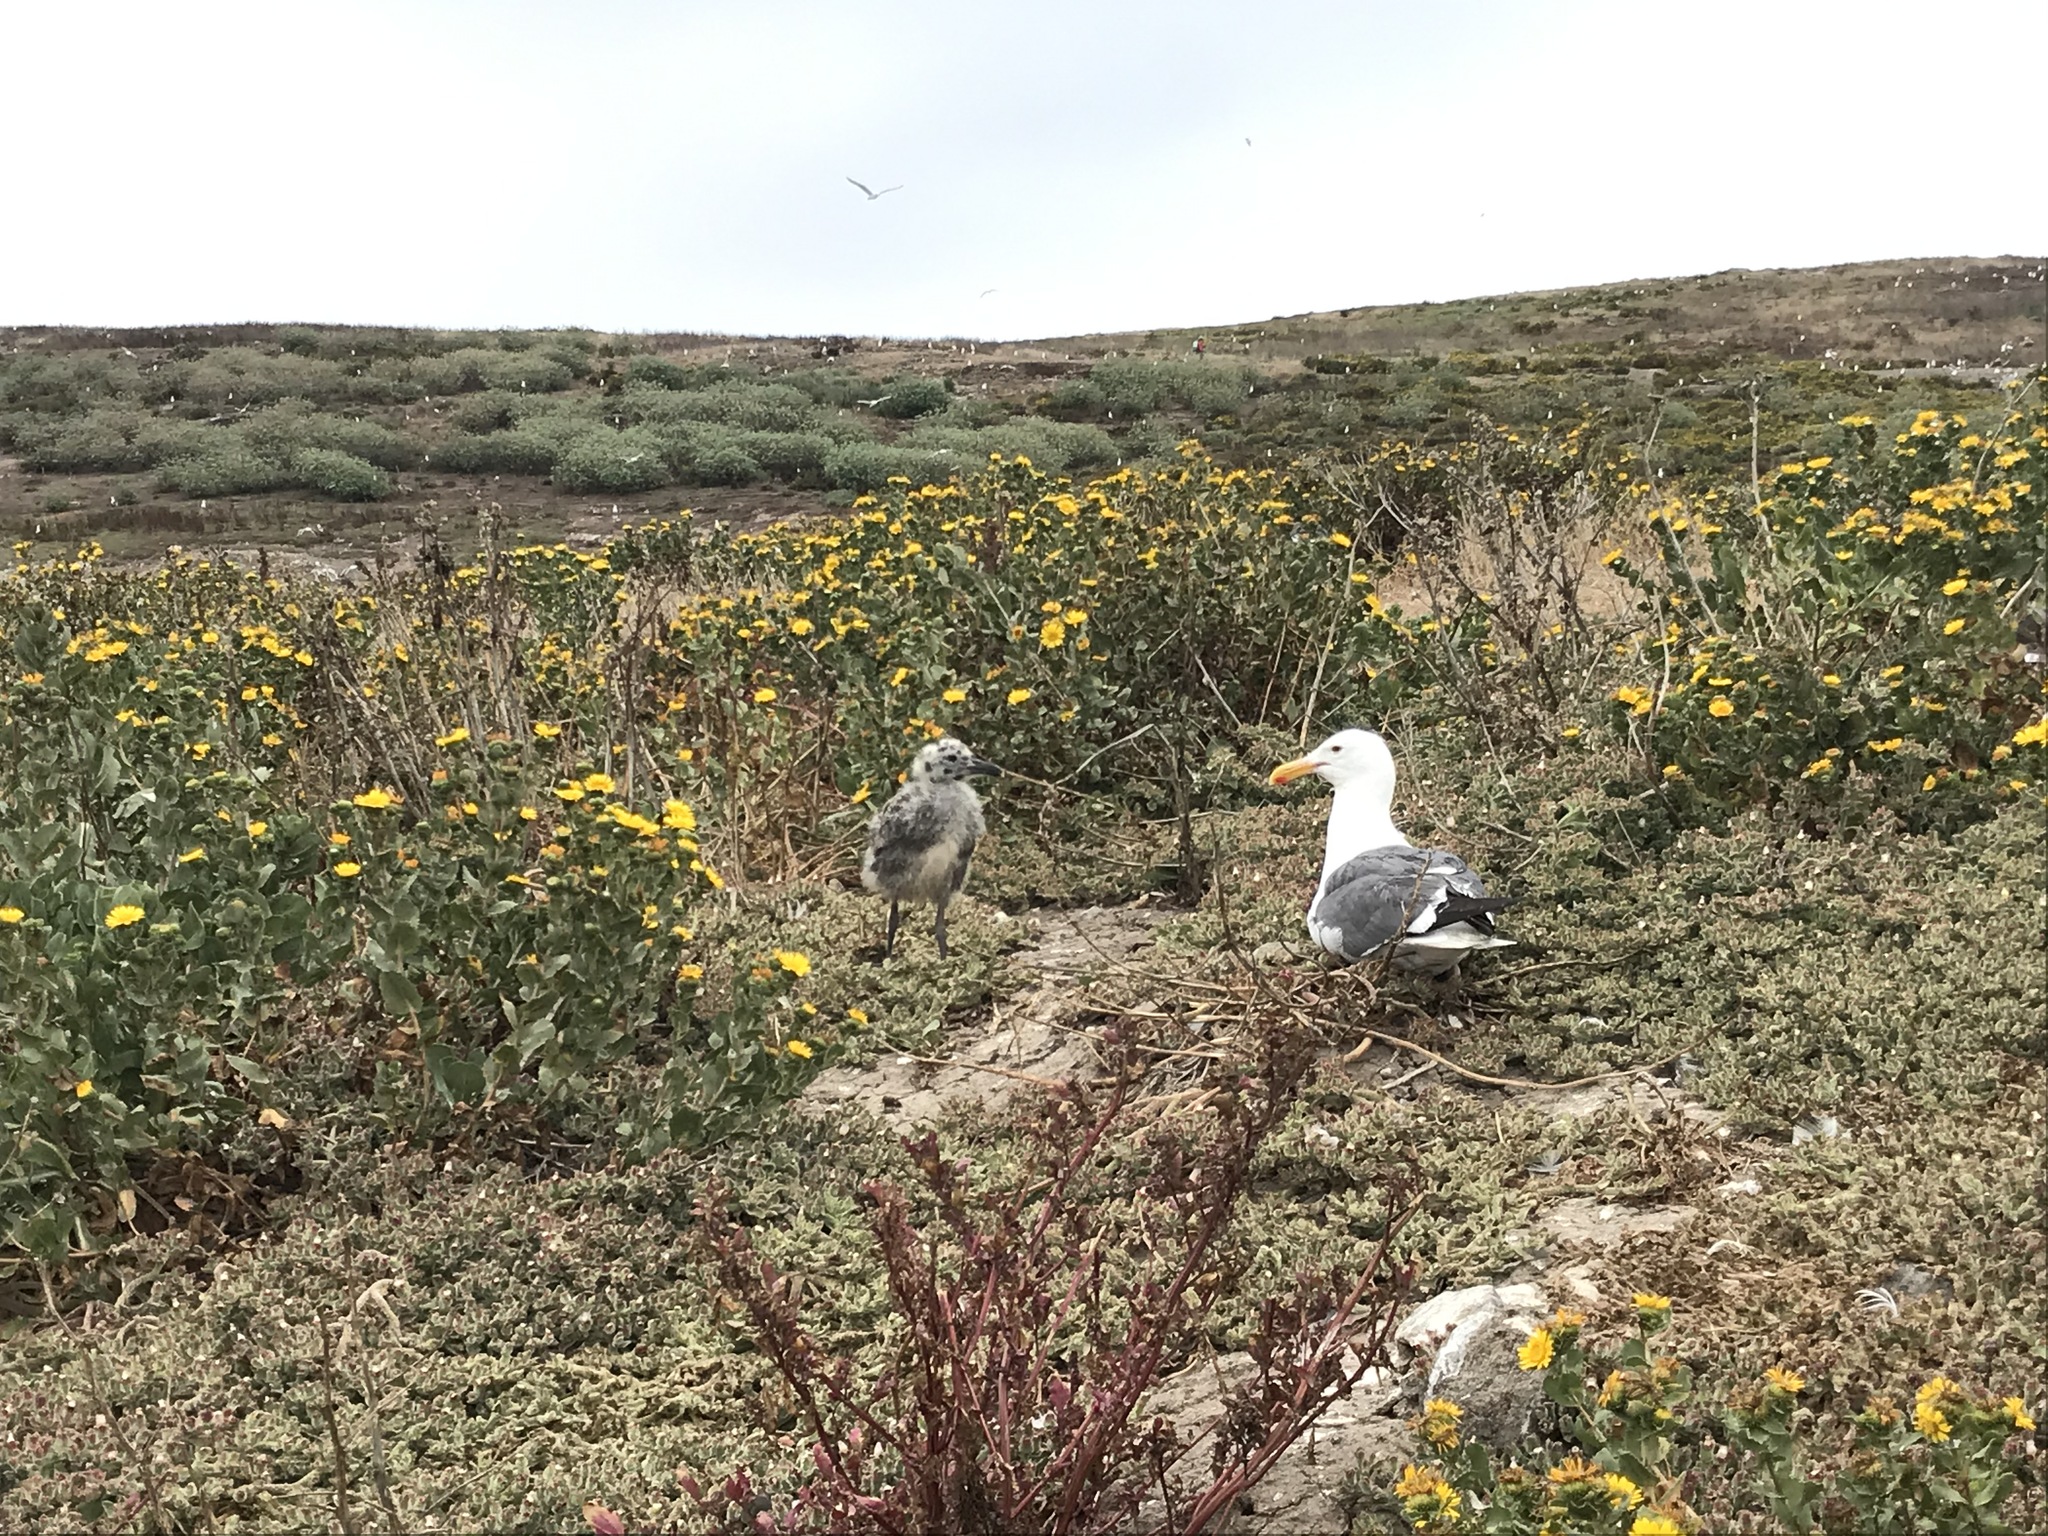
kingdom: Animalia
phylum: Chordata
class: Aves
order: Charadriiformes
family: Laridae
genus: Larus
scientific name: Larus occidentalis
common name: Western gull
